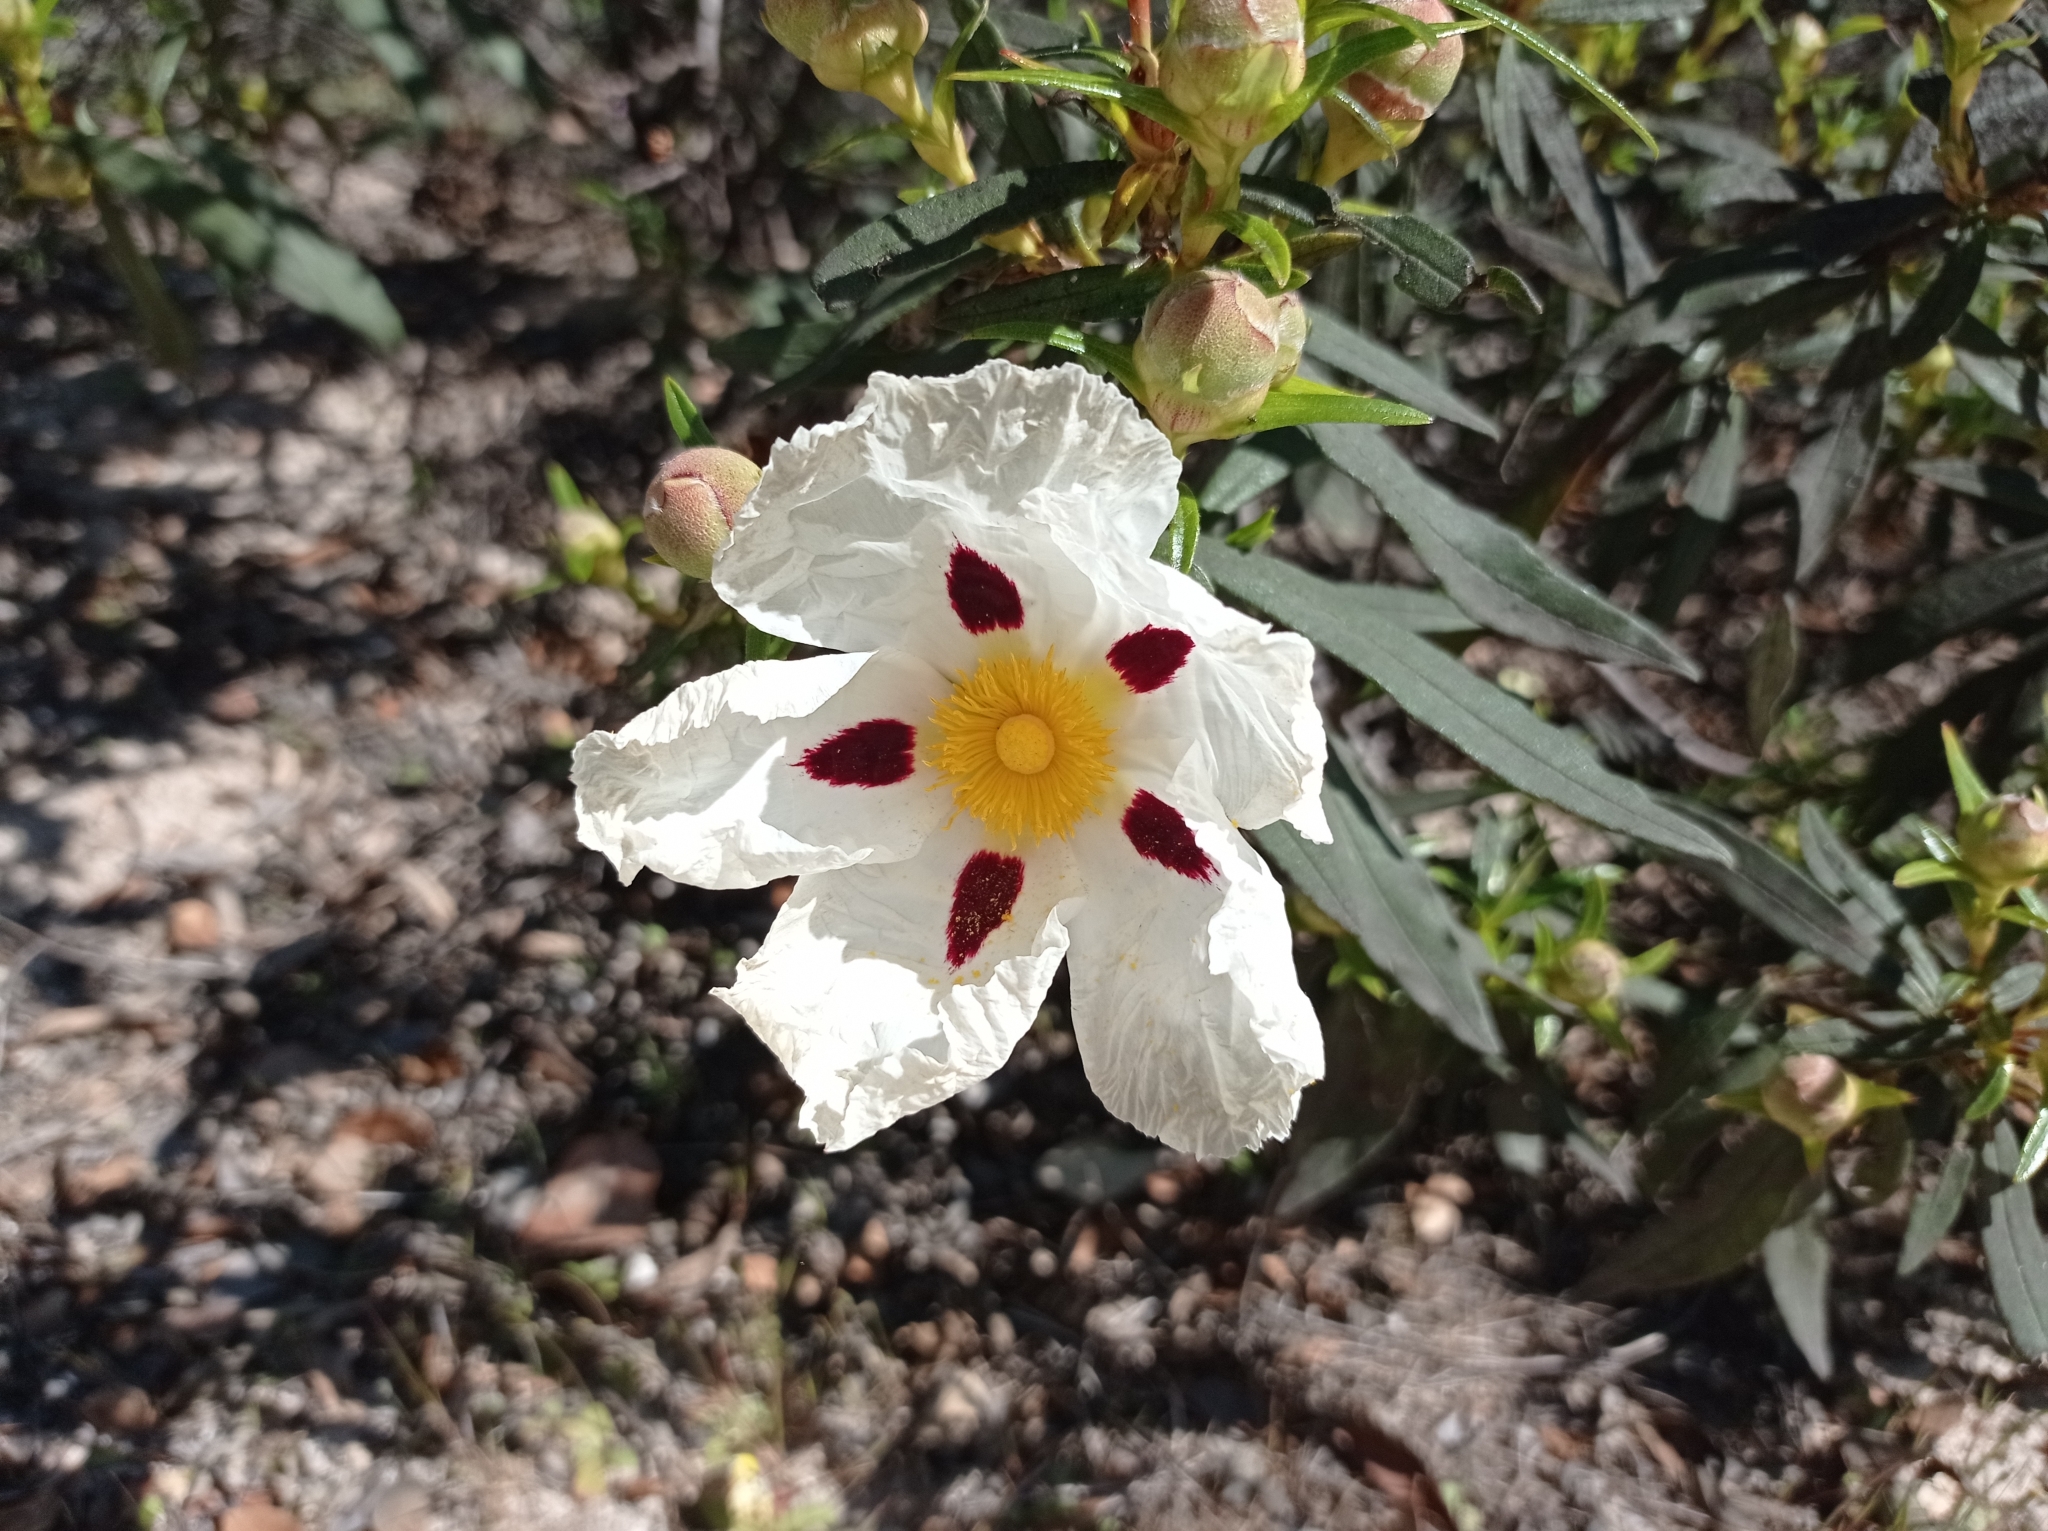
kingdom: Plantae
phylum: Tracheophyta
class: Magnoliopsida
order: Malvales
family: Cistaceae
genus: Cistus
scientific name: Cistus ladanifer
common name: Common gum cistus
